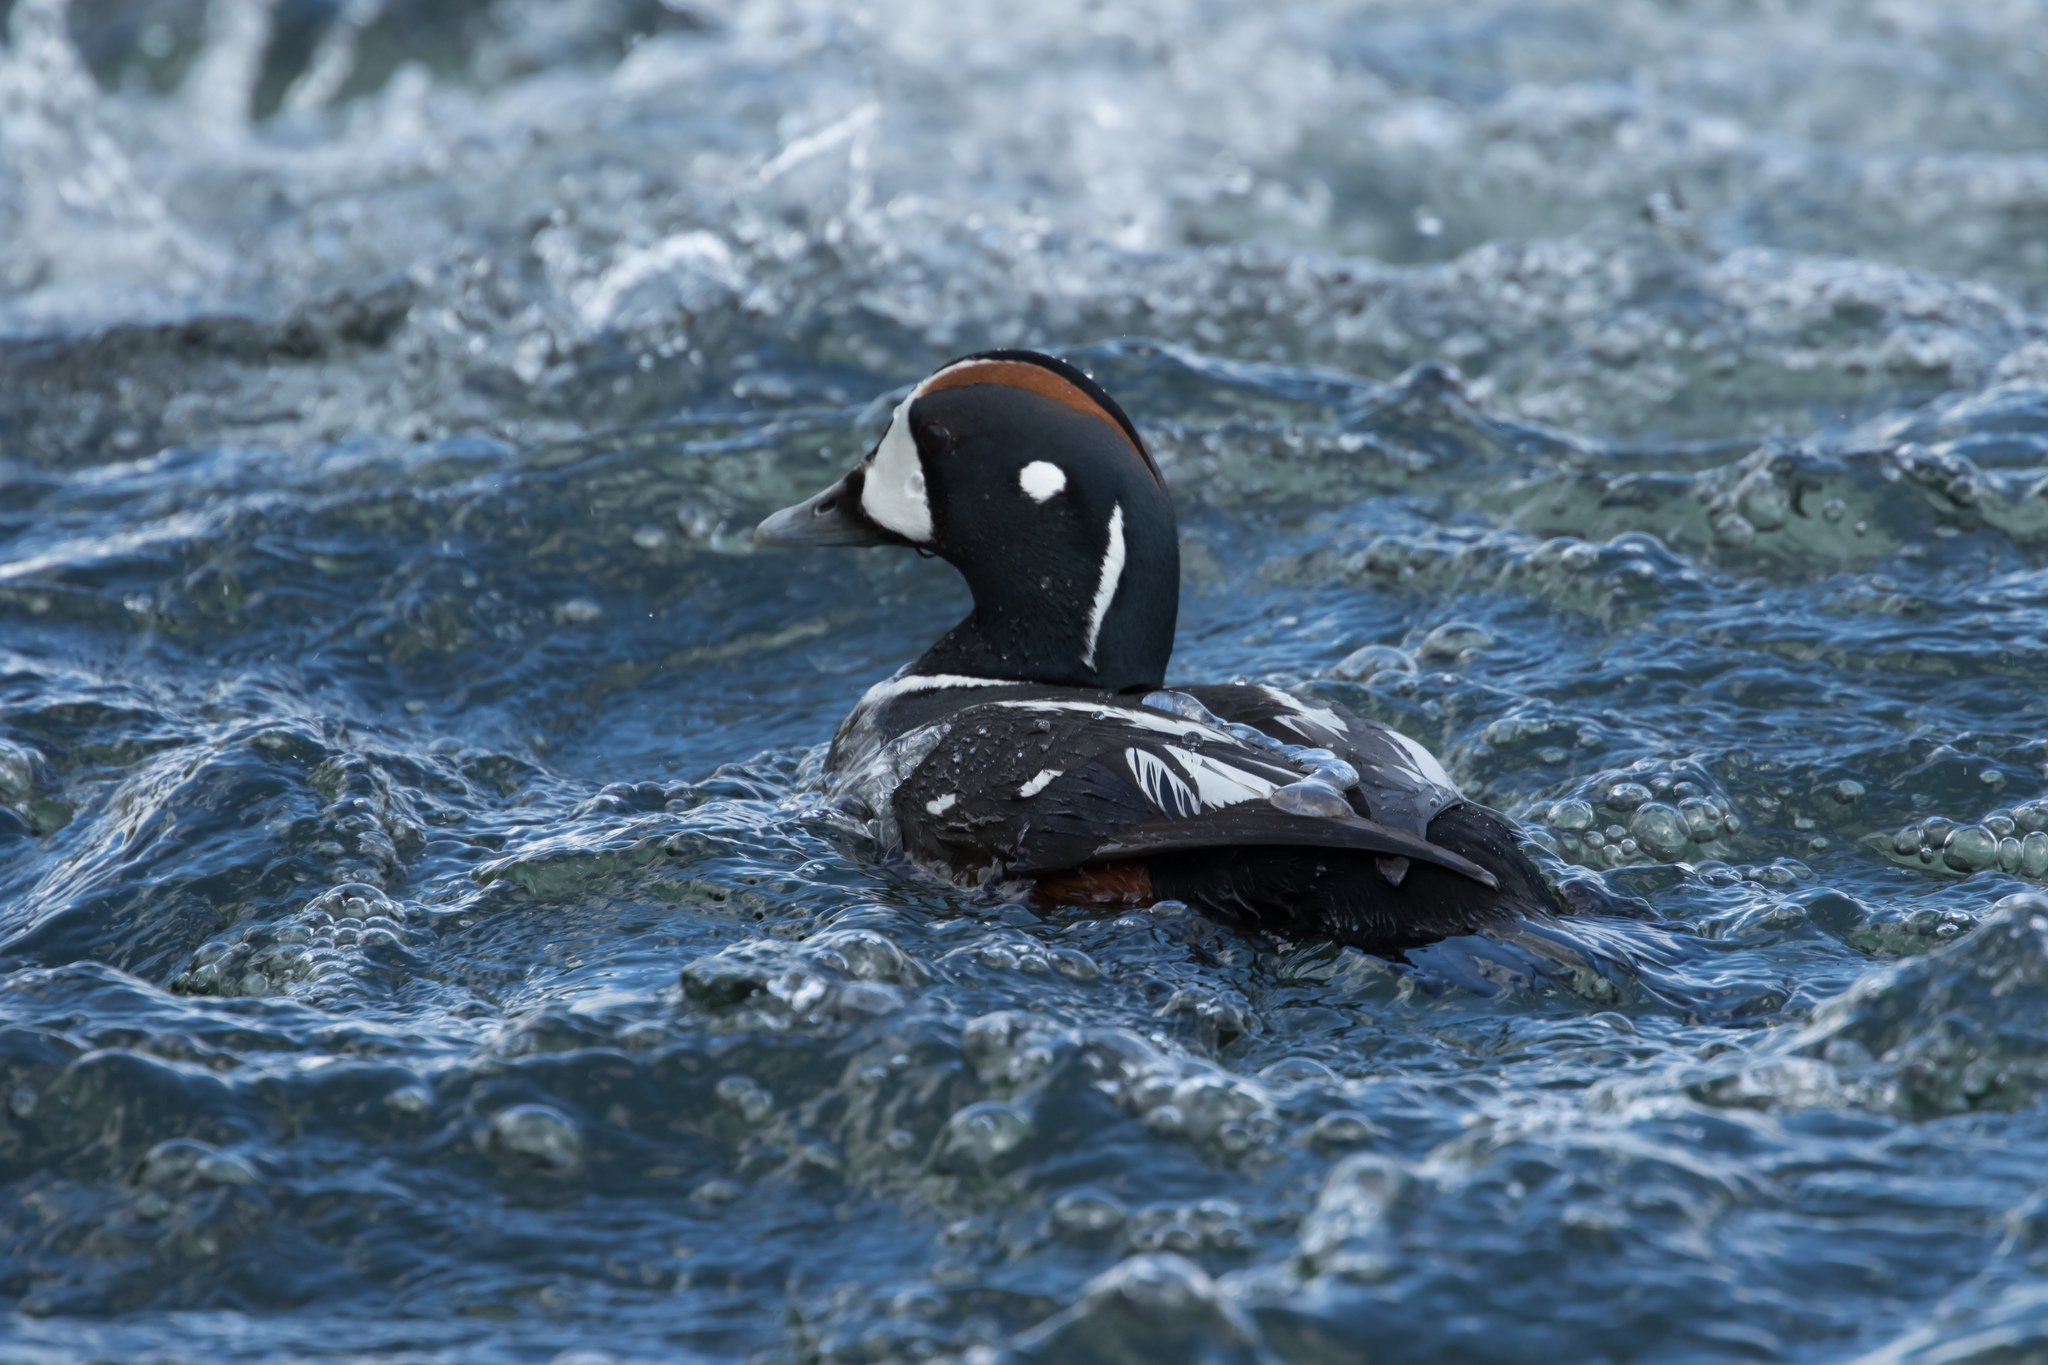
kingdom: Animalia
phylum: Chordata
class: Aves
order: Anseriformes
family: Anatidae
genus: Histrionicus
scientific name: Histrionicus histrionicus
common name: Harlequin duck
